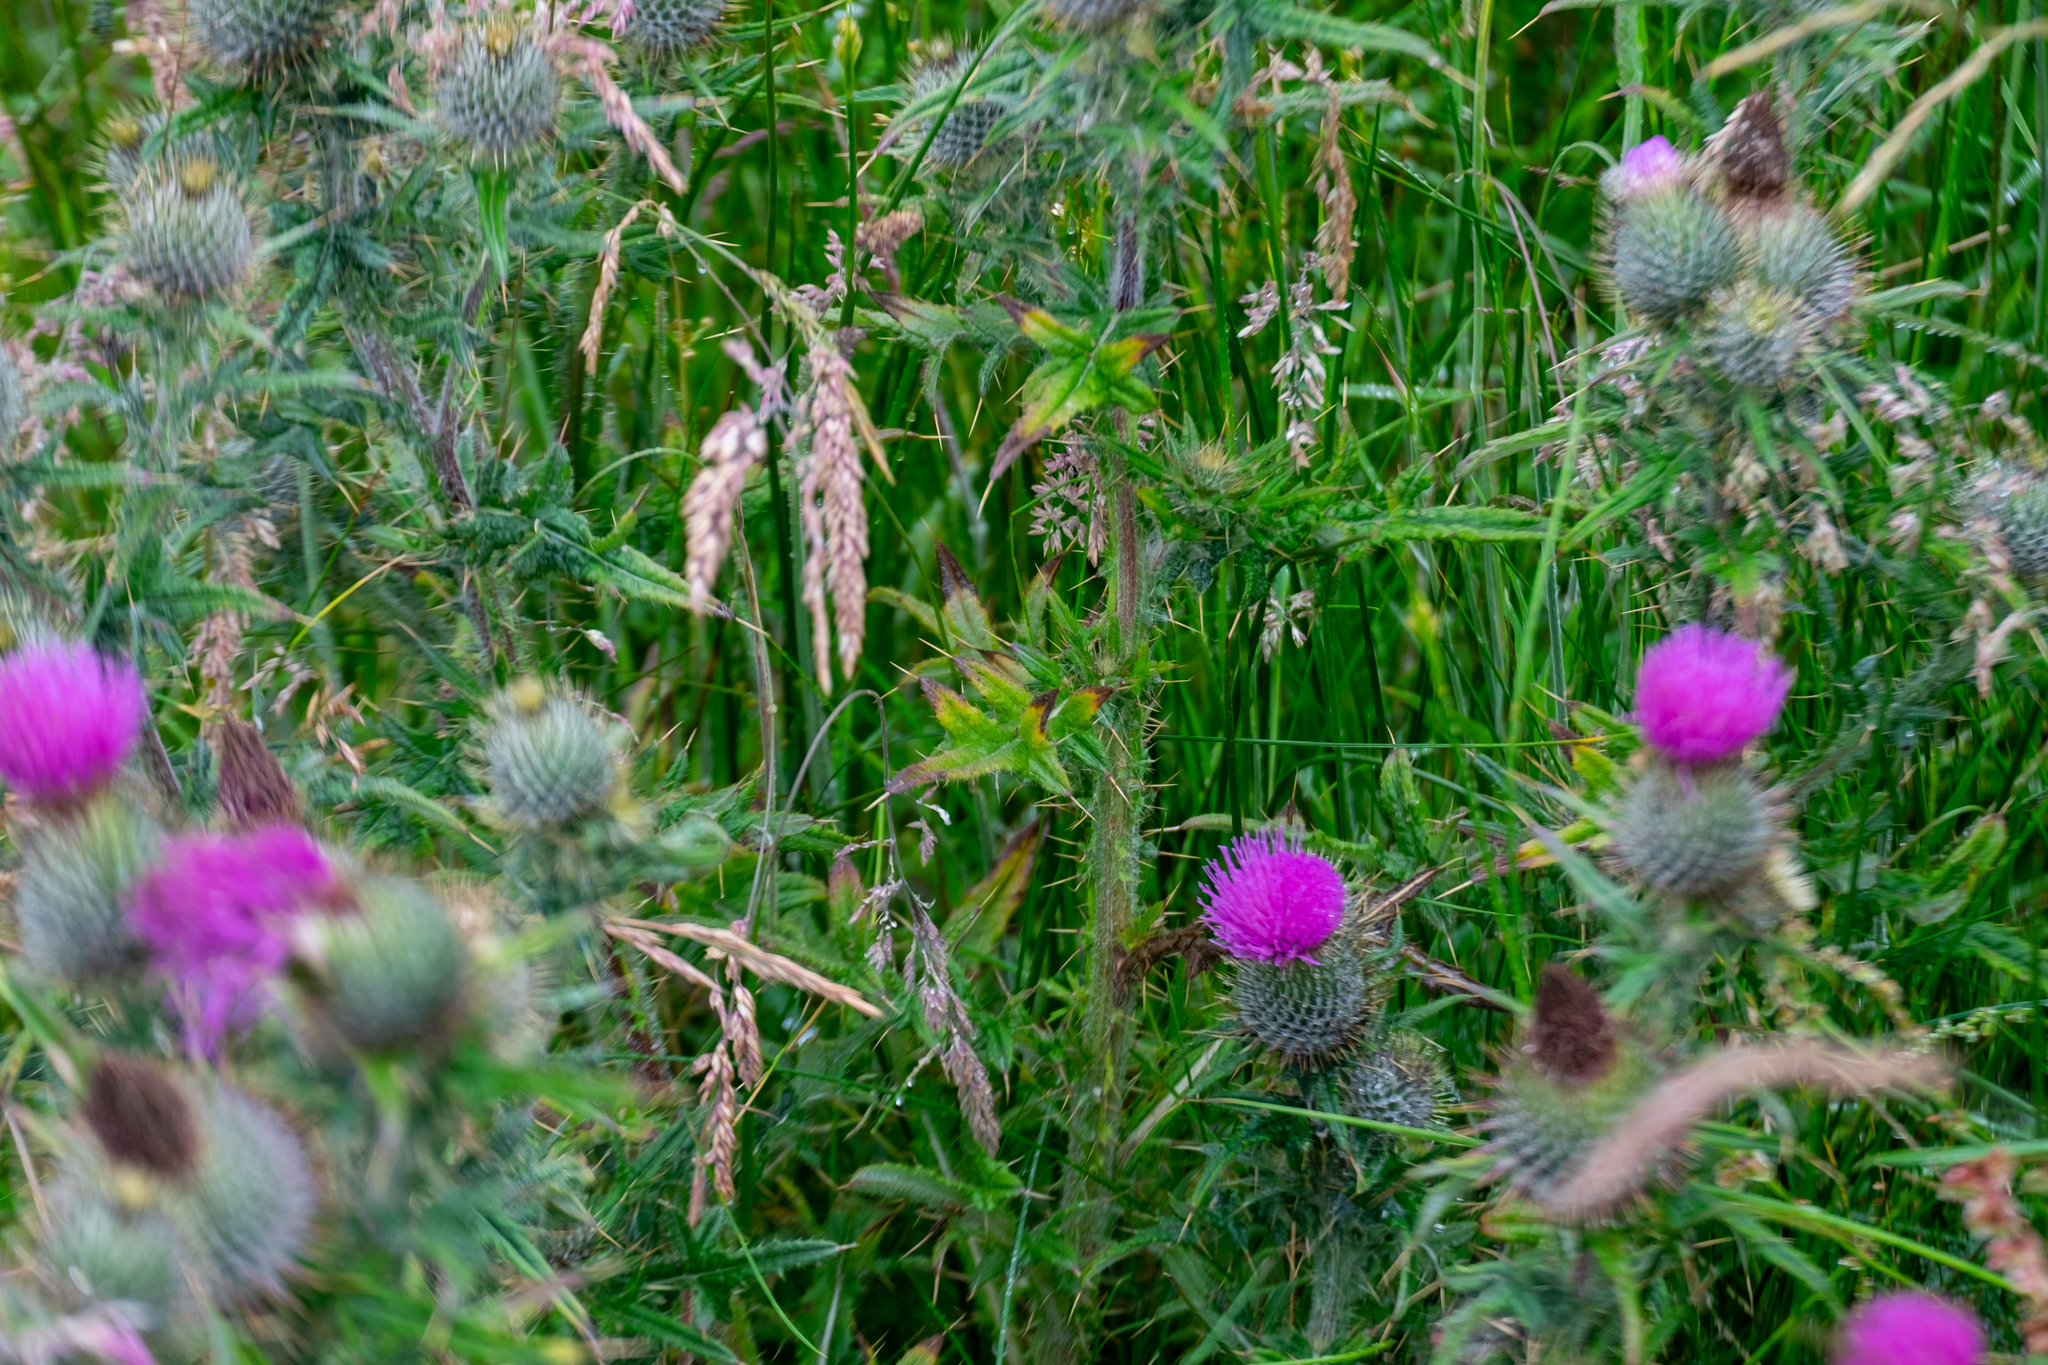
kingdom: Plantae
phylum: Tracheophyta
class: Magnoliopsida
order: Asterales
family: Asteraceae
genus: Cirsium
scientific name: Cirsium vulgare
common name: Bull thistle
